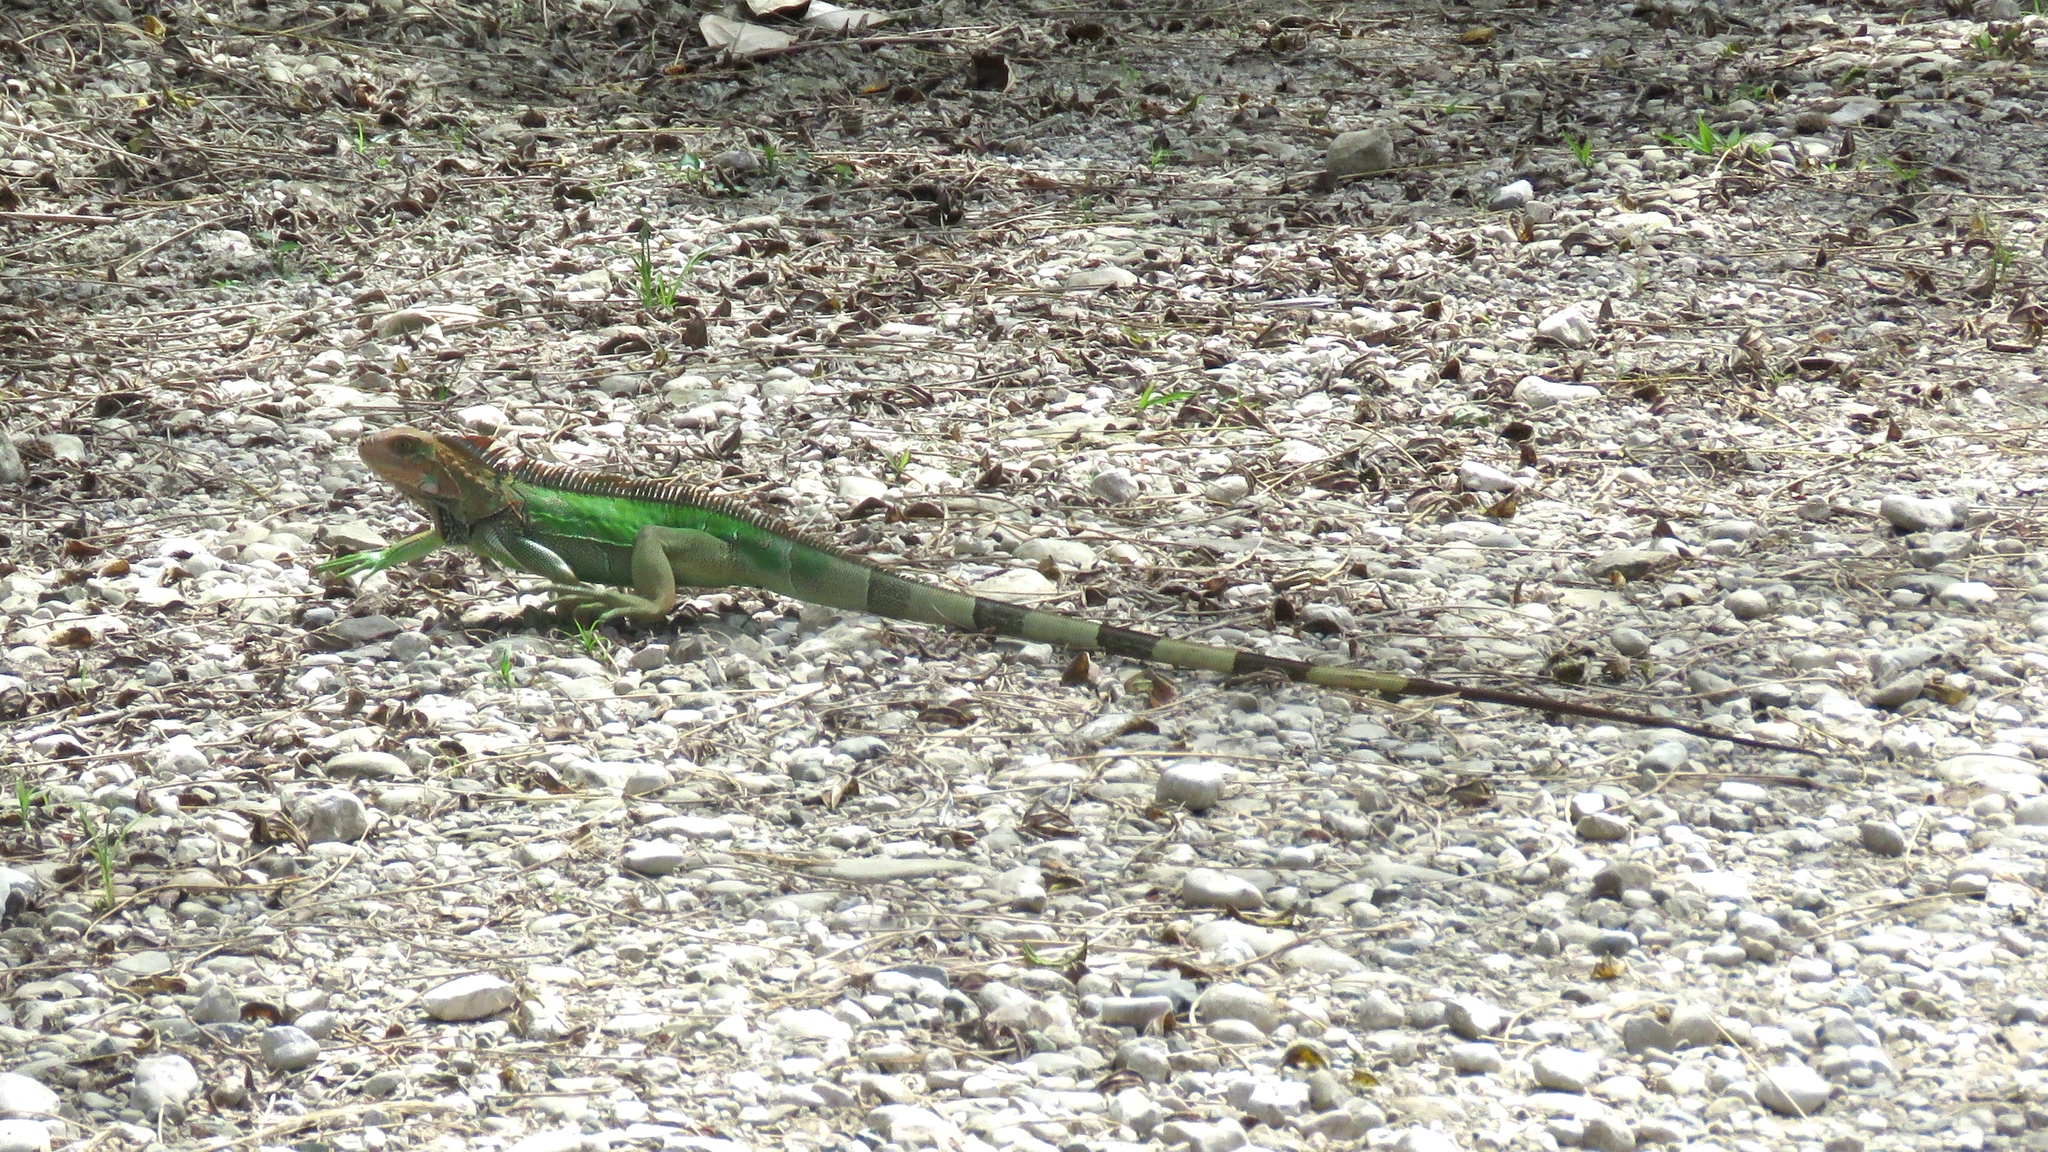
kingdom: Animalia
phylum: Chordata
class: Squamata
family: Iguanidae
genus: Iguana
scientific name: Iguana iguana
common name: Green iguana
